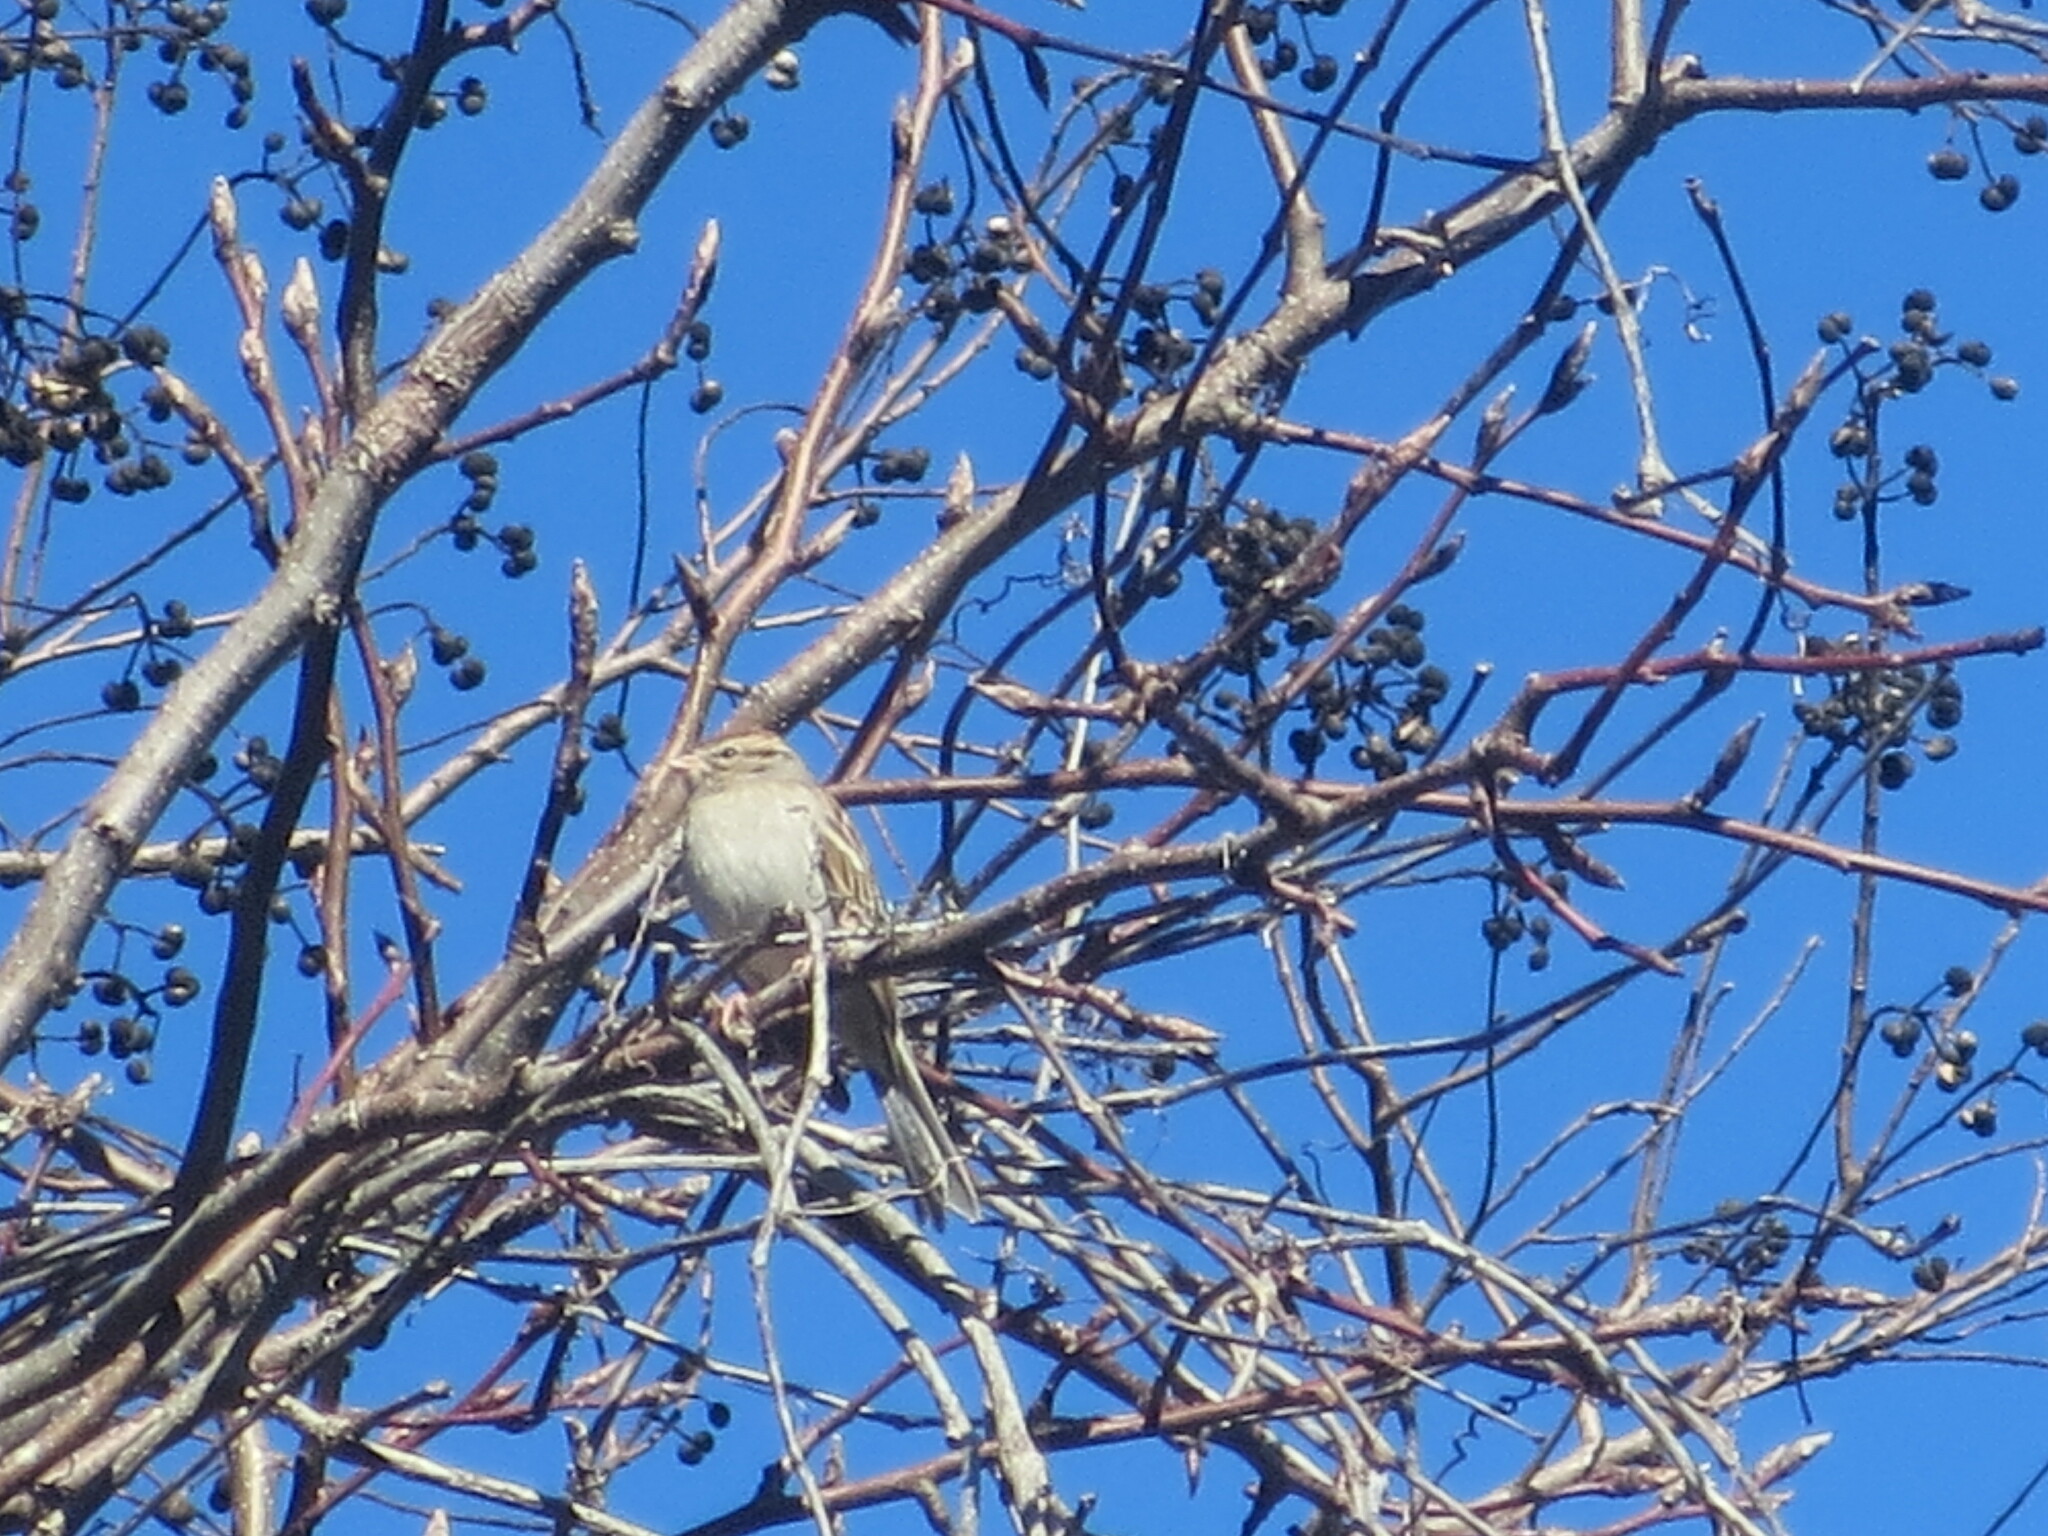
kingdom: Plantae
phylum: Tracheophyta
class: Magnoliopsida
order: Malpighiales
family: Euphorbiaceae
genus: Triadica
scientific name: Triadica sebifera
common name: Chinese tallow
